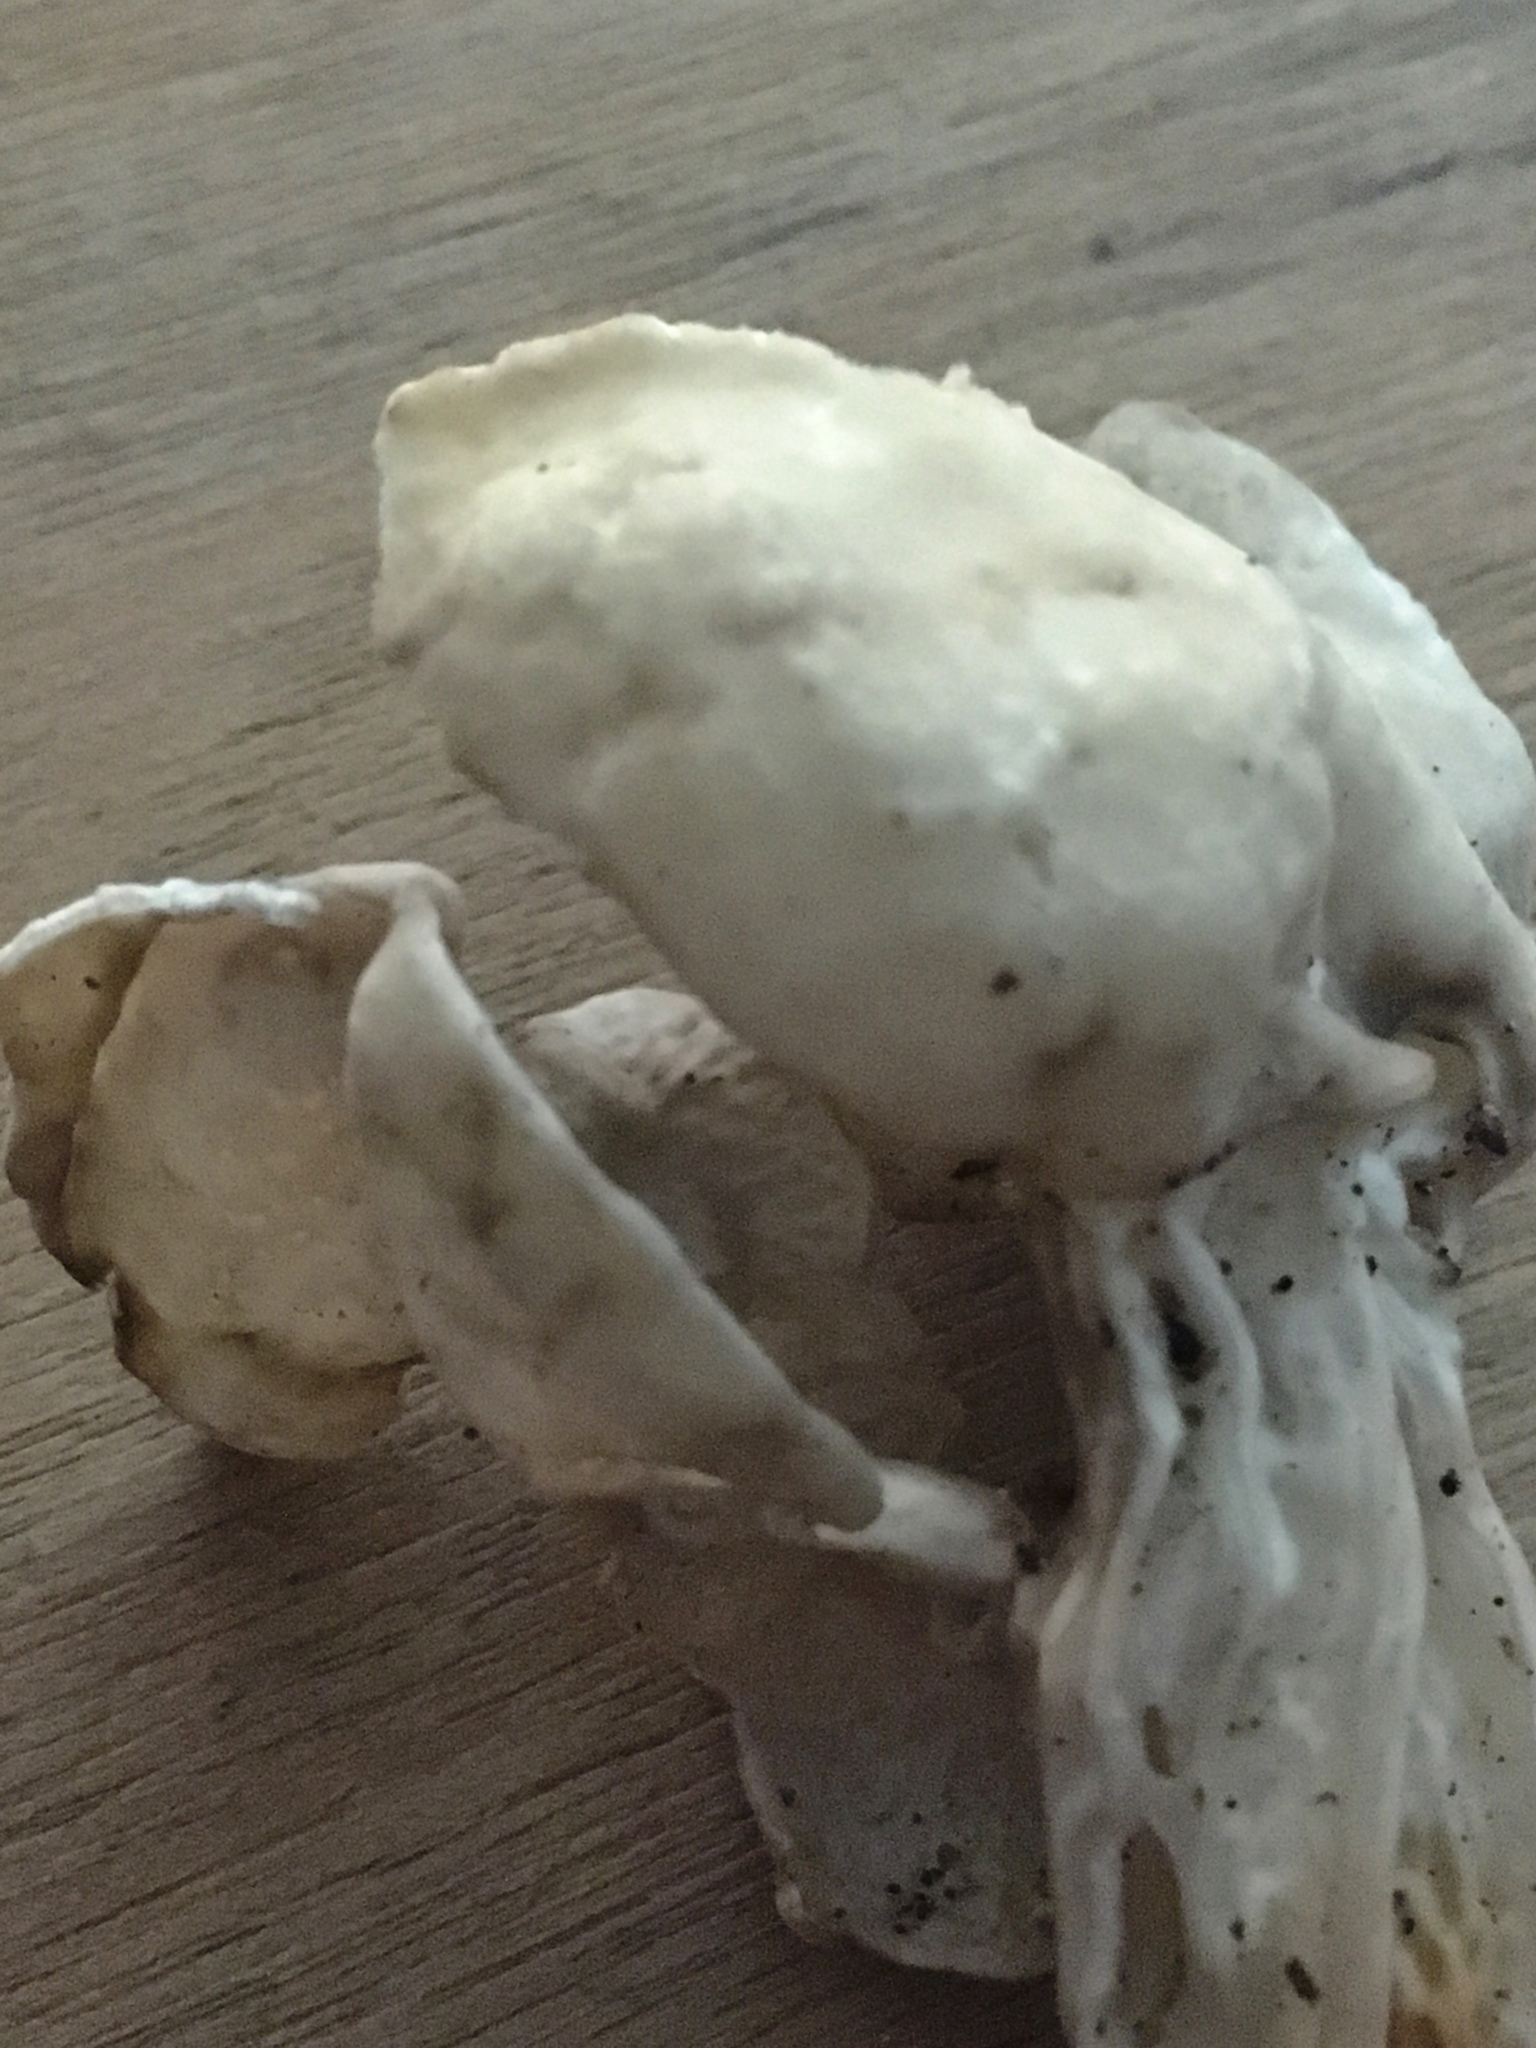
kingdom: Fungi
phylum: Ascomycota
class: Pezizomycetes
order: Pezizales
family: Helvellaceae
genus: Helvella
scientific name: Helvella crispa
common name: White saddle
